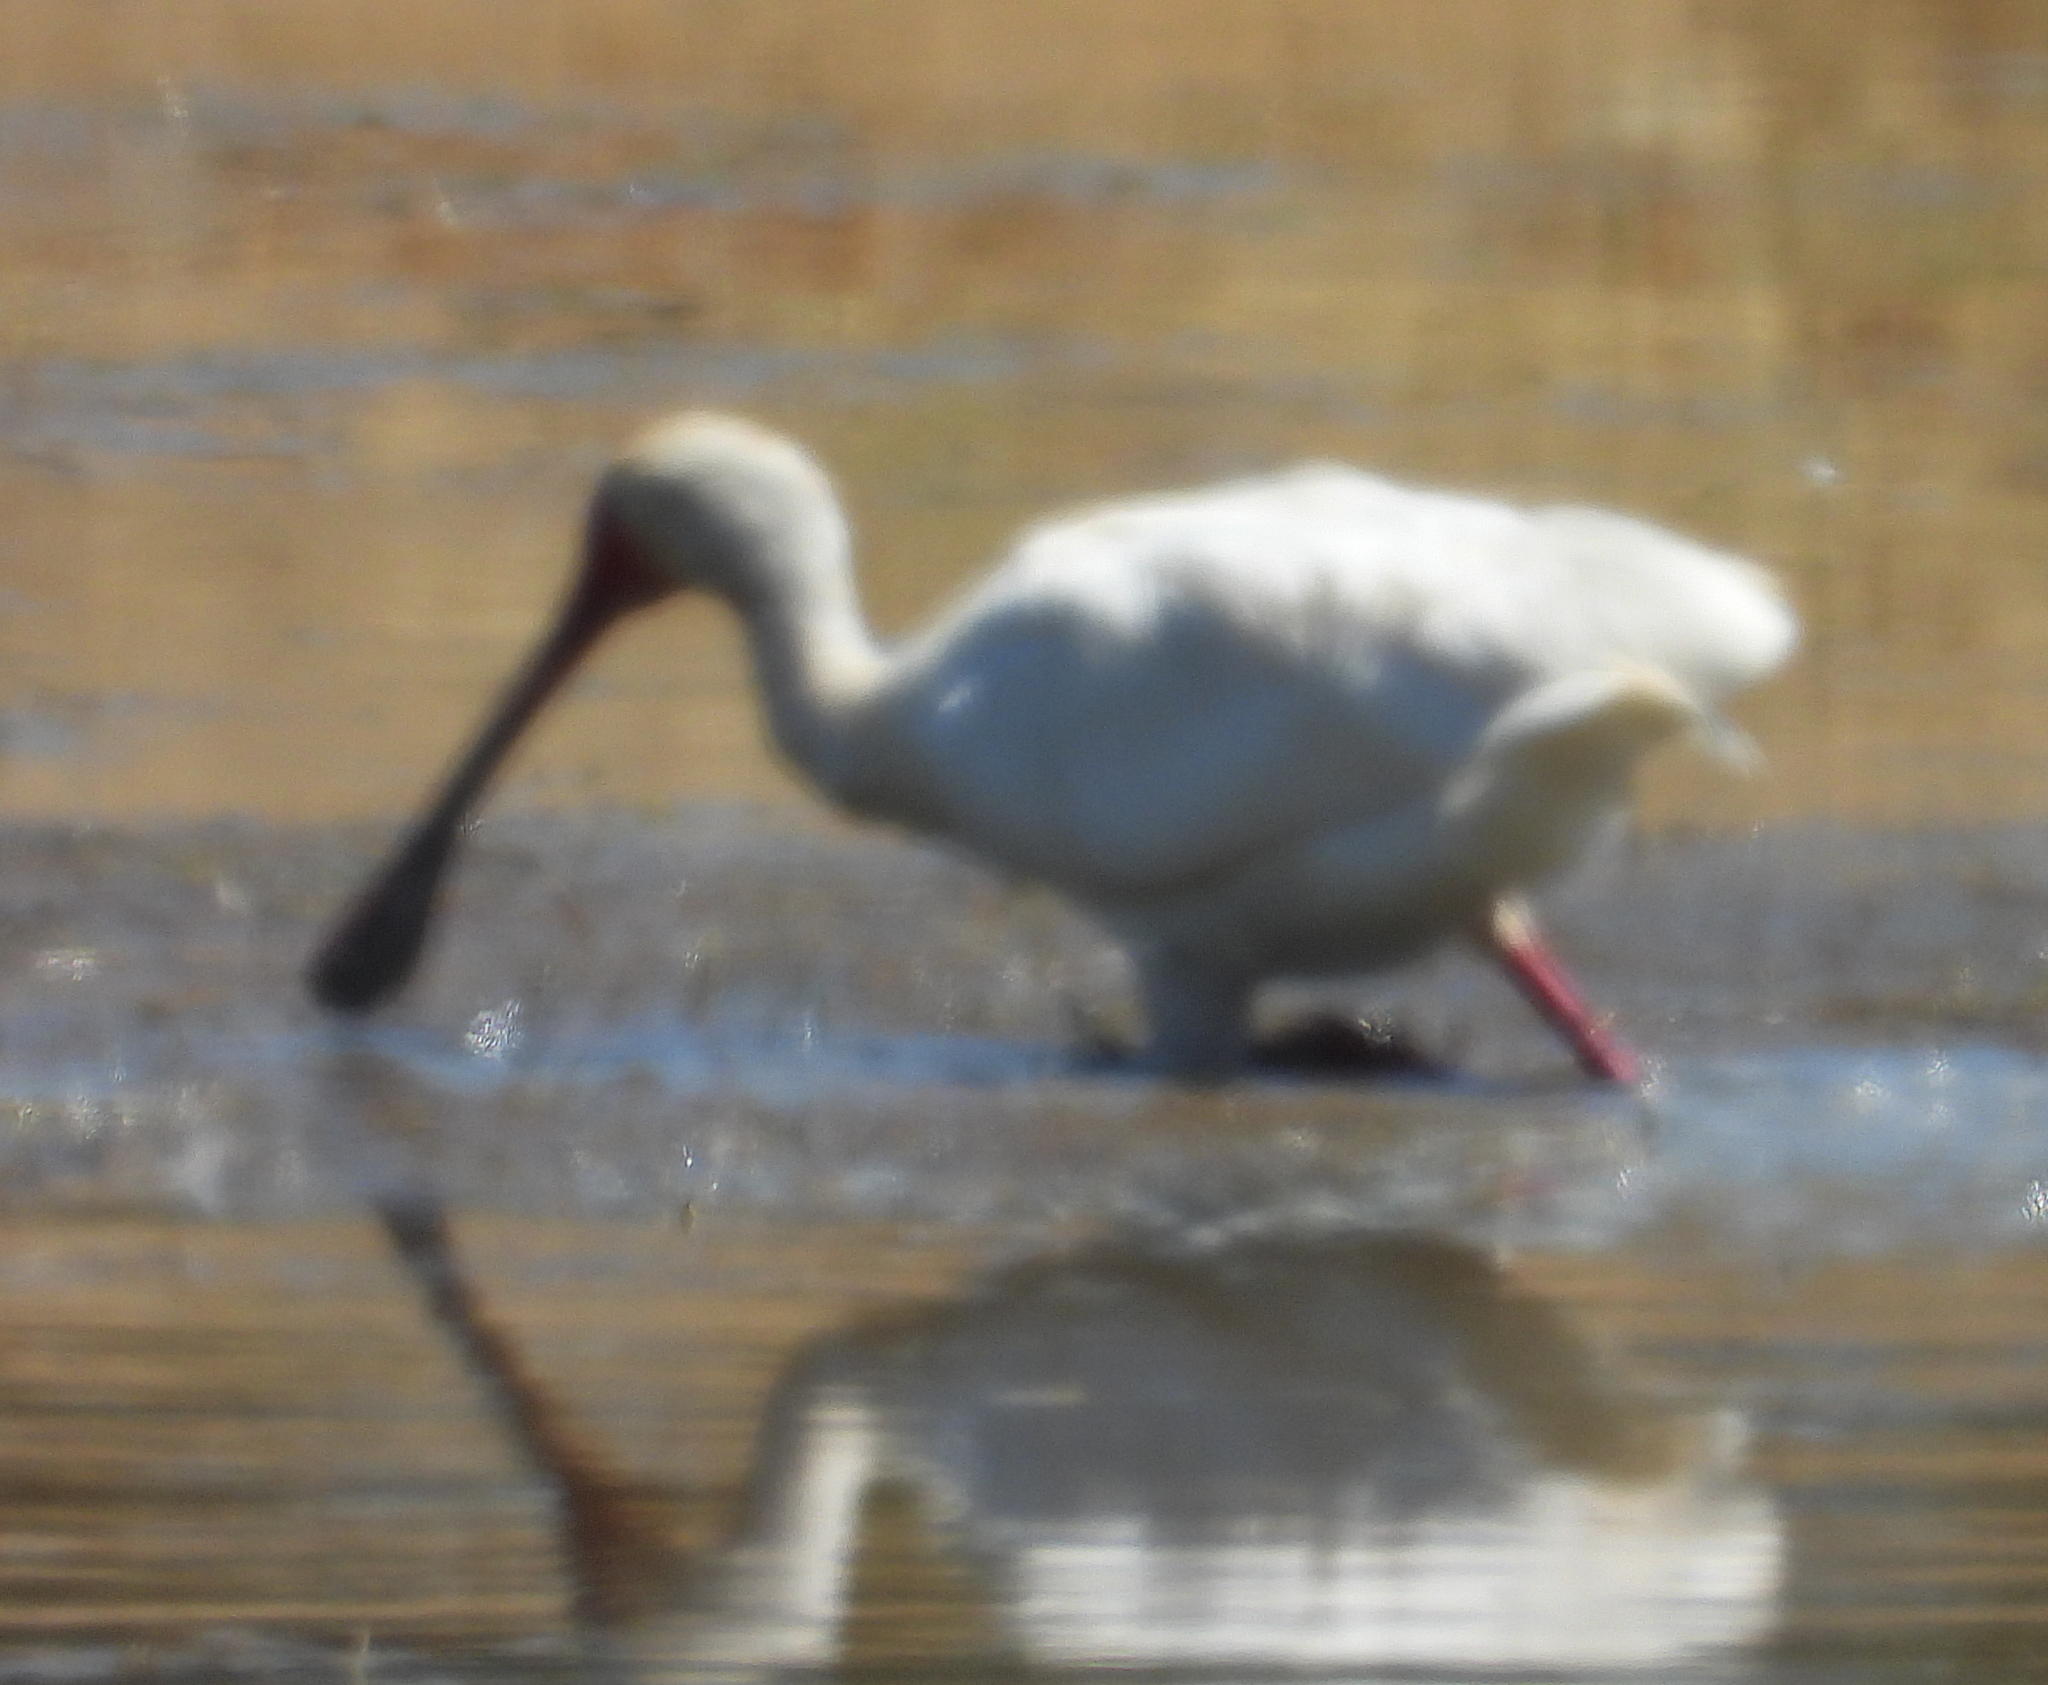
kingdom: Animalia
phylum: Chordata
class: Aves
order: Pelecaniformes
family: Threskiornithidae
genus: Platalea
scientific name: Platalea alba
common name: African spoonbill
